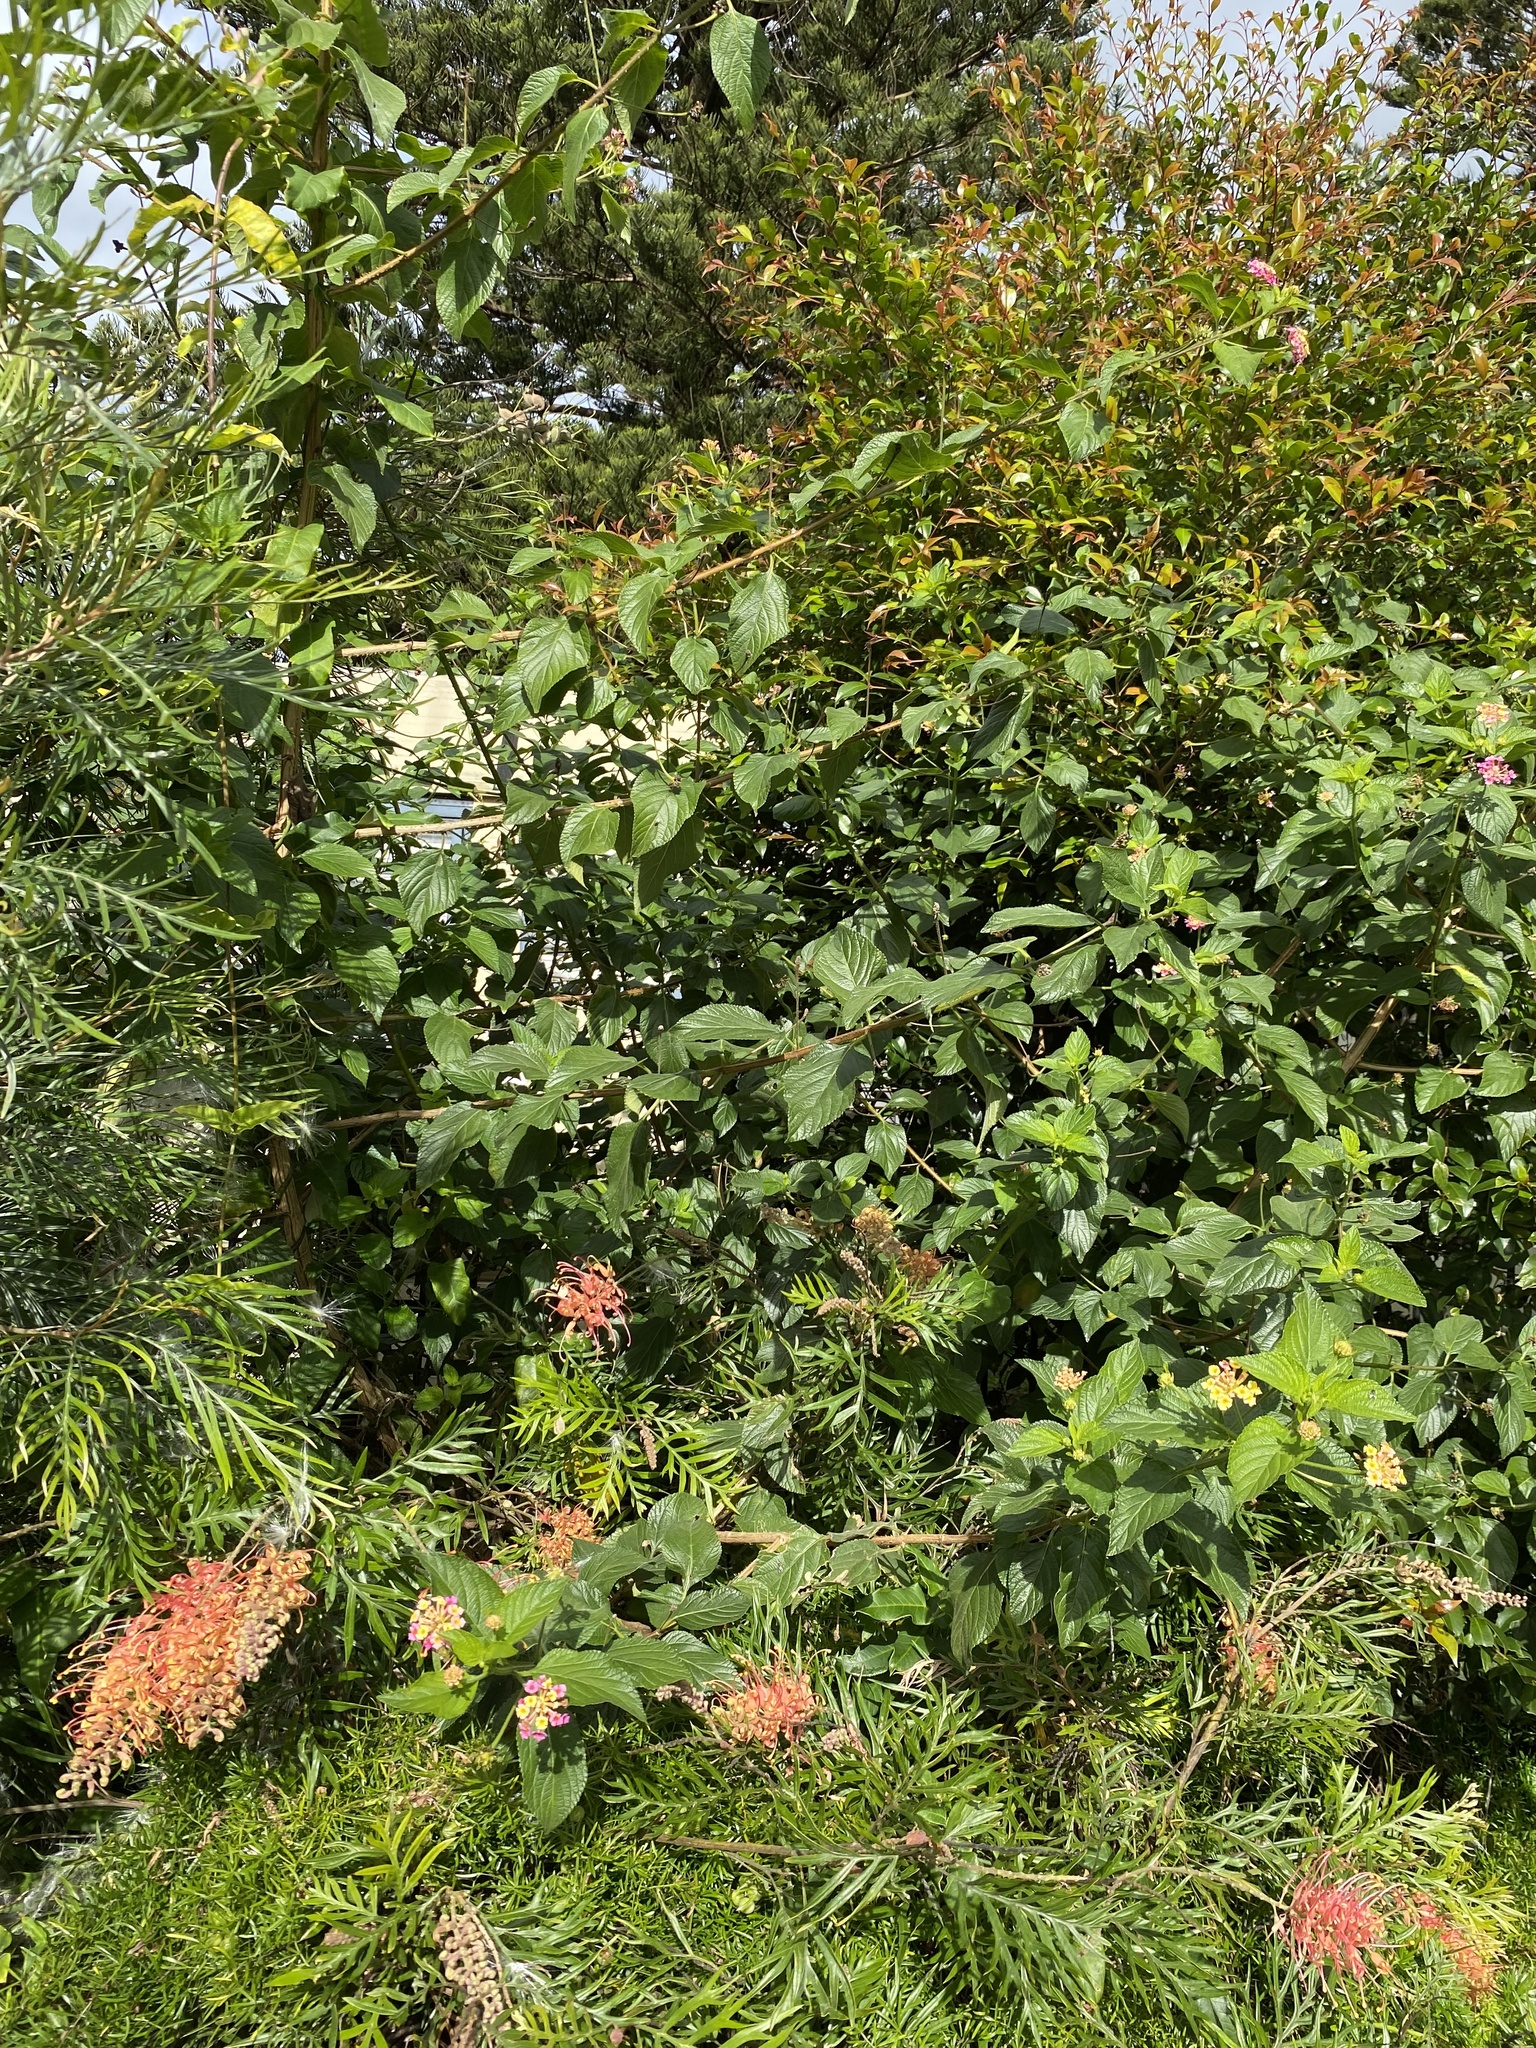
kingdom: Plantae
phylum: Tracheophyta
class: Magnoliopsida
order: Lamiales
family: Verbenaceae
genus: Lantana
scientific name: Lantana camara
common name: Lantana
